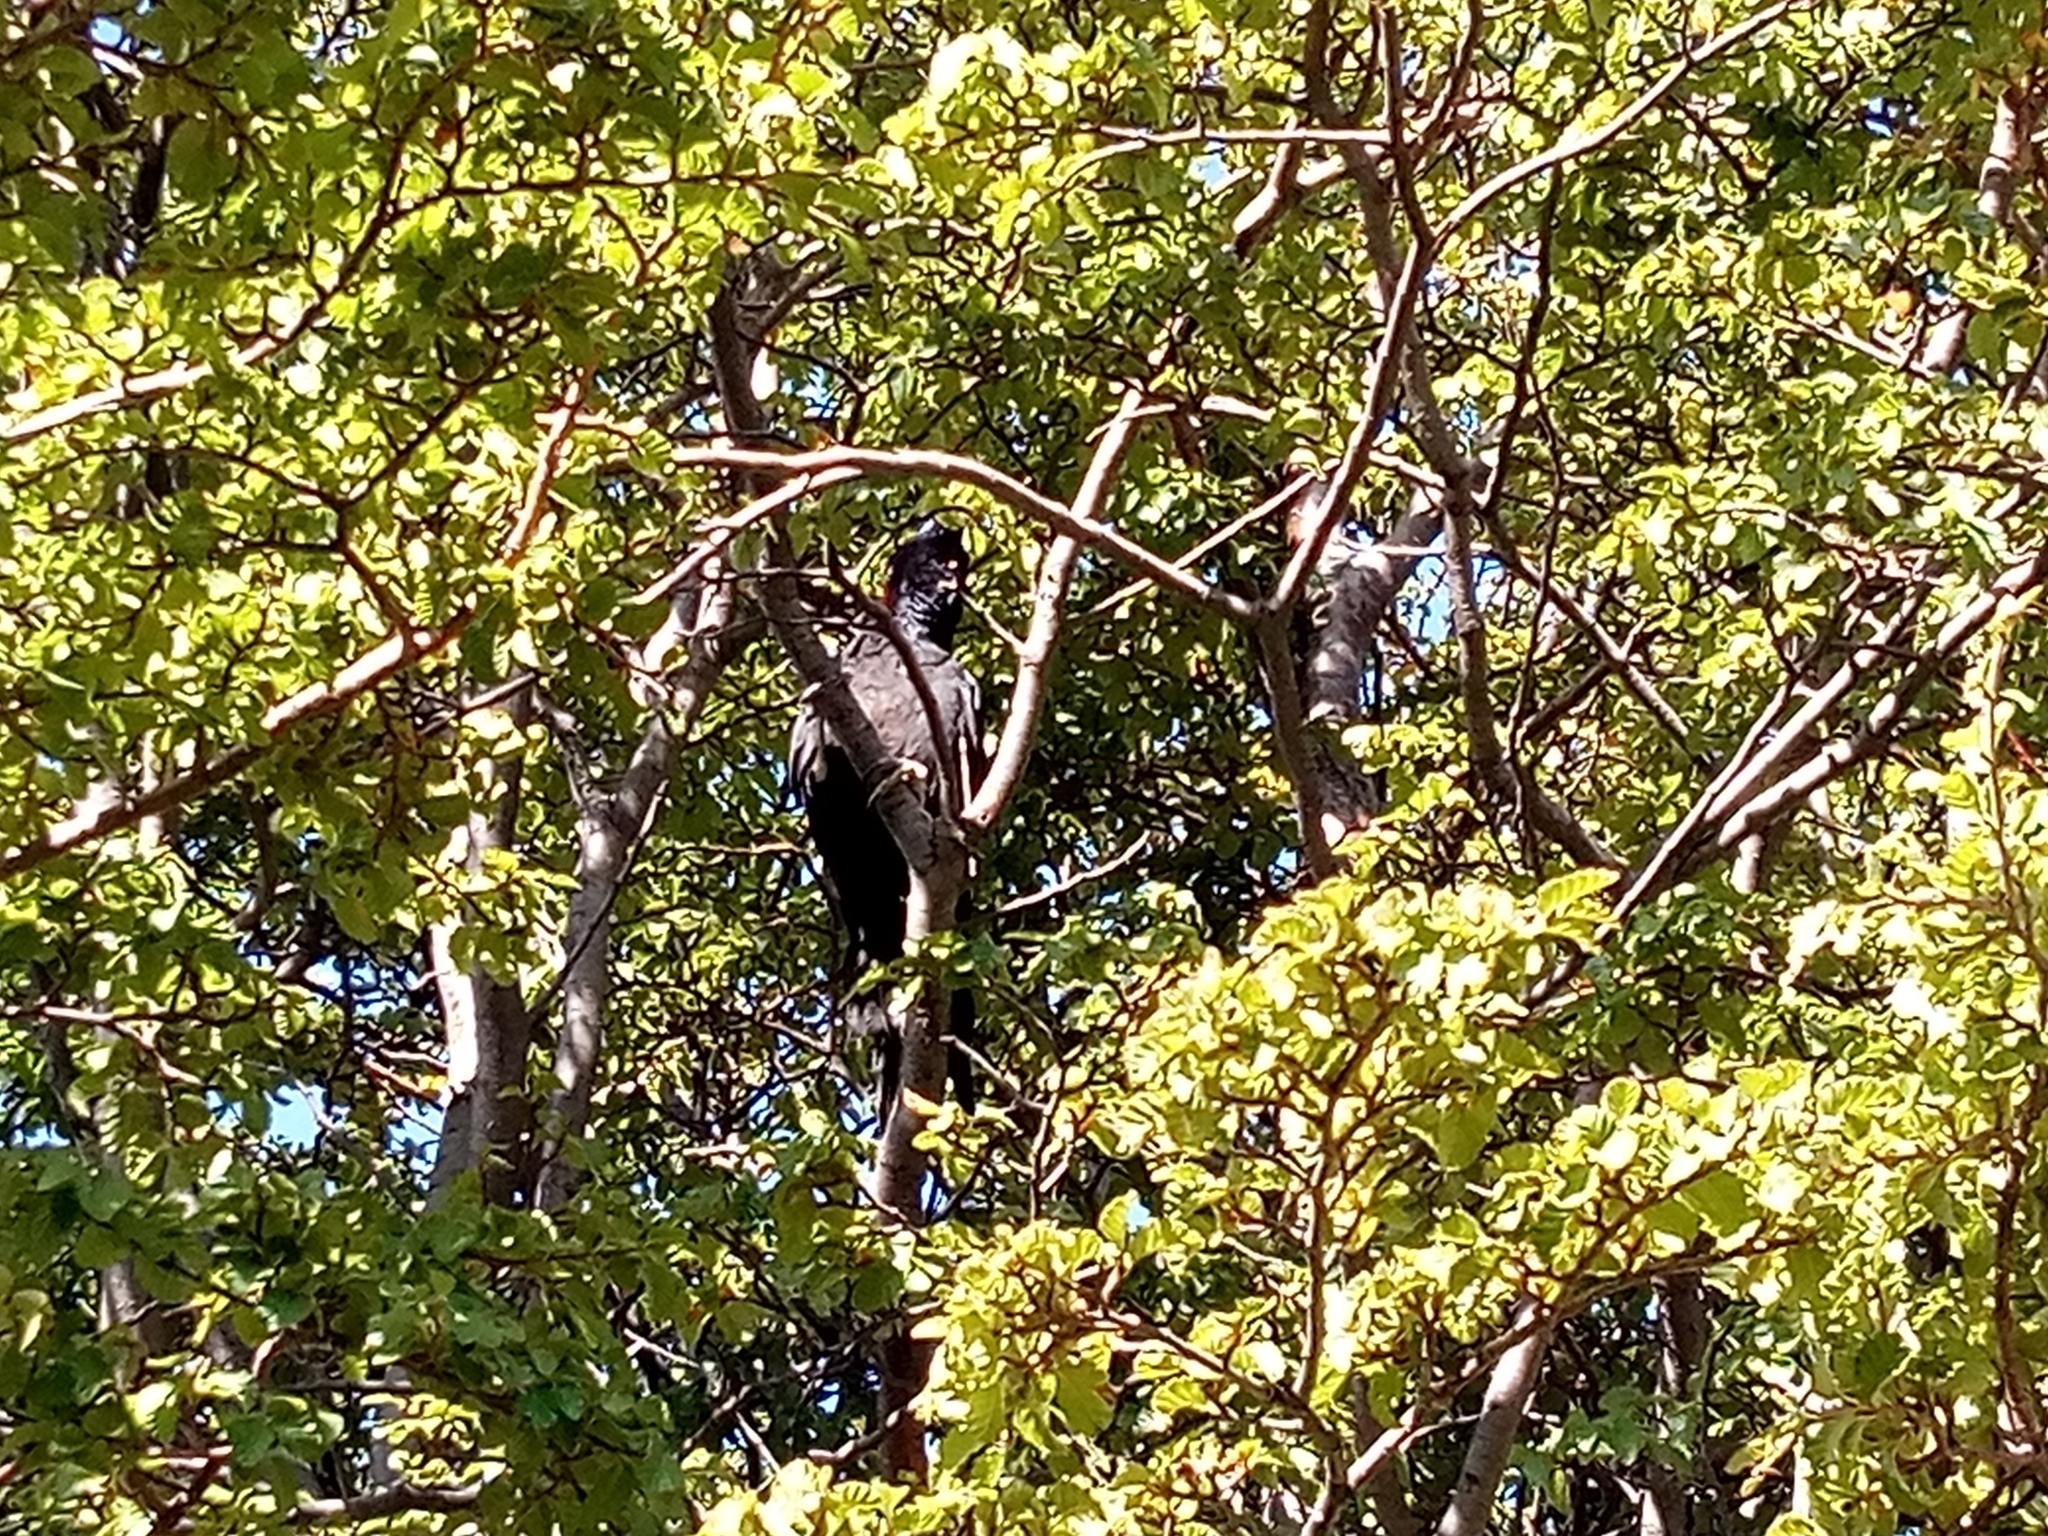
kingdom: Animalia
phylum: Chordata
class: Aves
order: Piciformes
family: Picidae
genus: Campephilus
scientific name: Campephilus magellanicus
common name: Magellanic woodpecker
